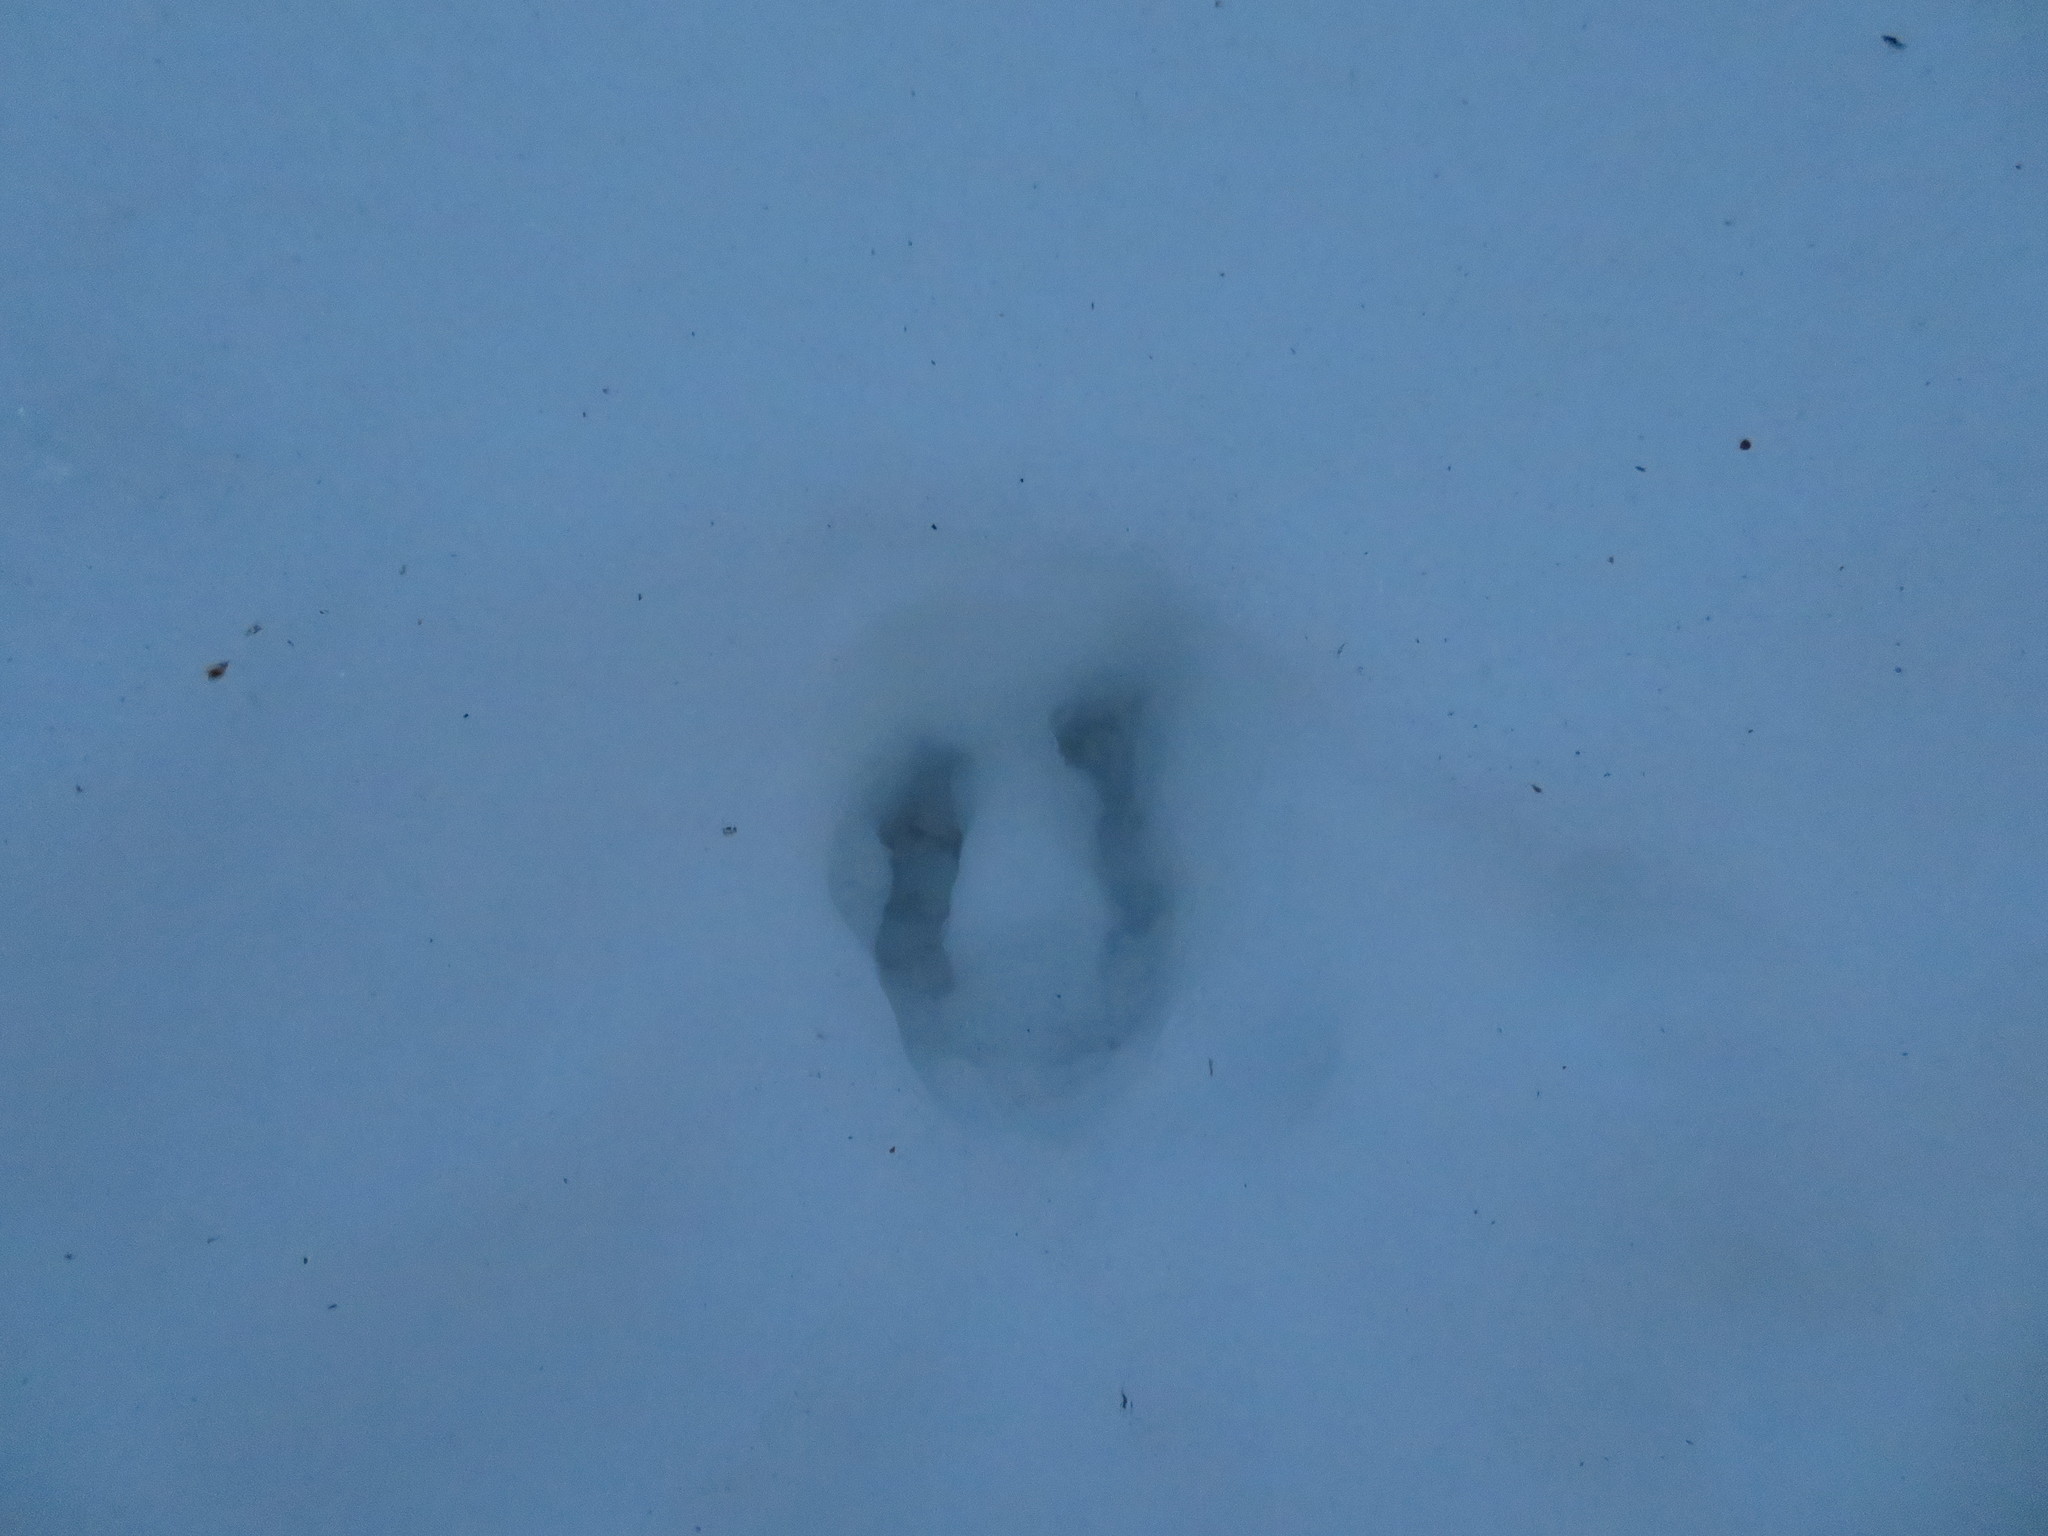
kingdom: Animalia
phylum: Chordata
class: Mammalia
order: Artiodactyla
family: Cervidae
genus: Odocoileus
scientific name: Odocoileus virginianus
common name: White-tailed deer
